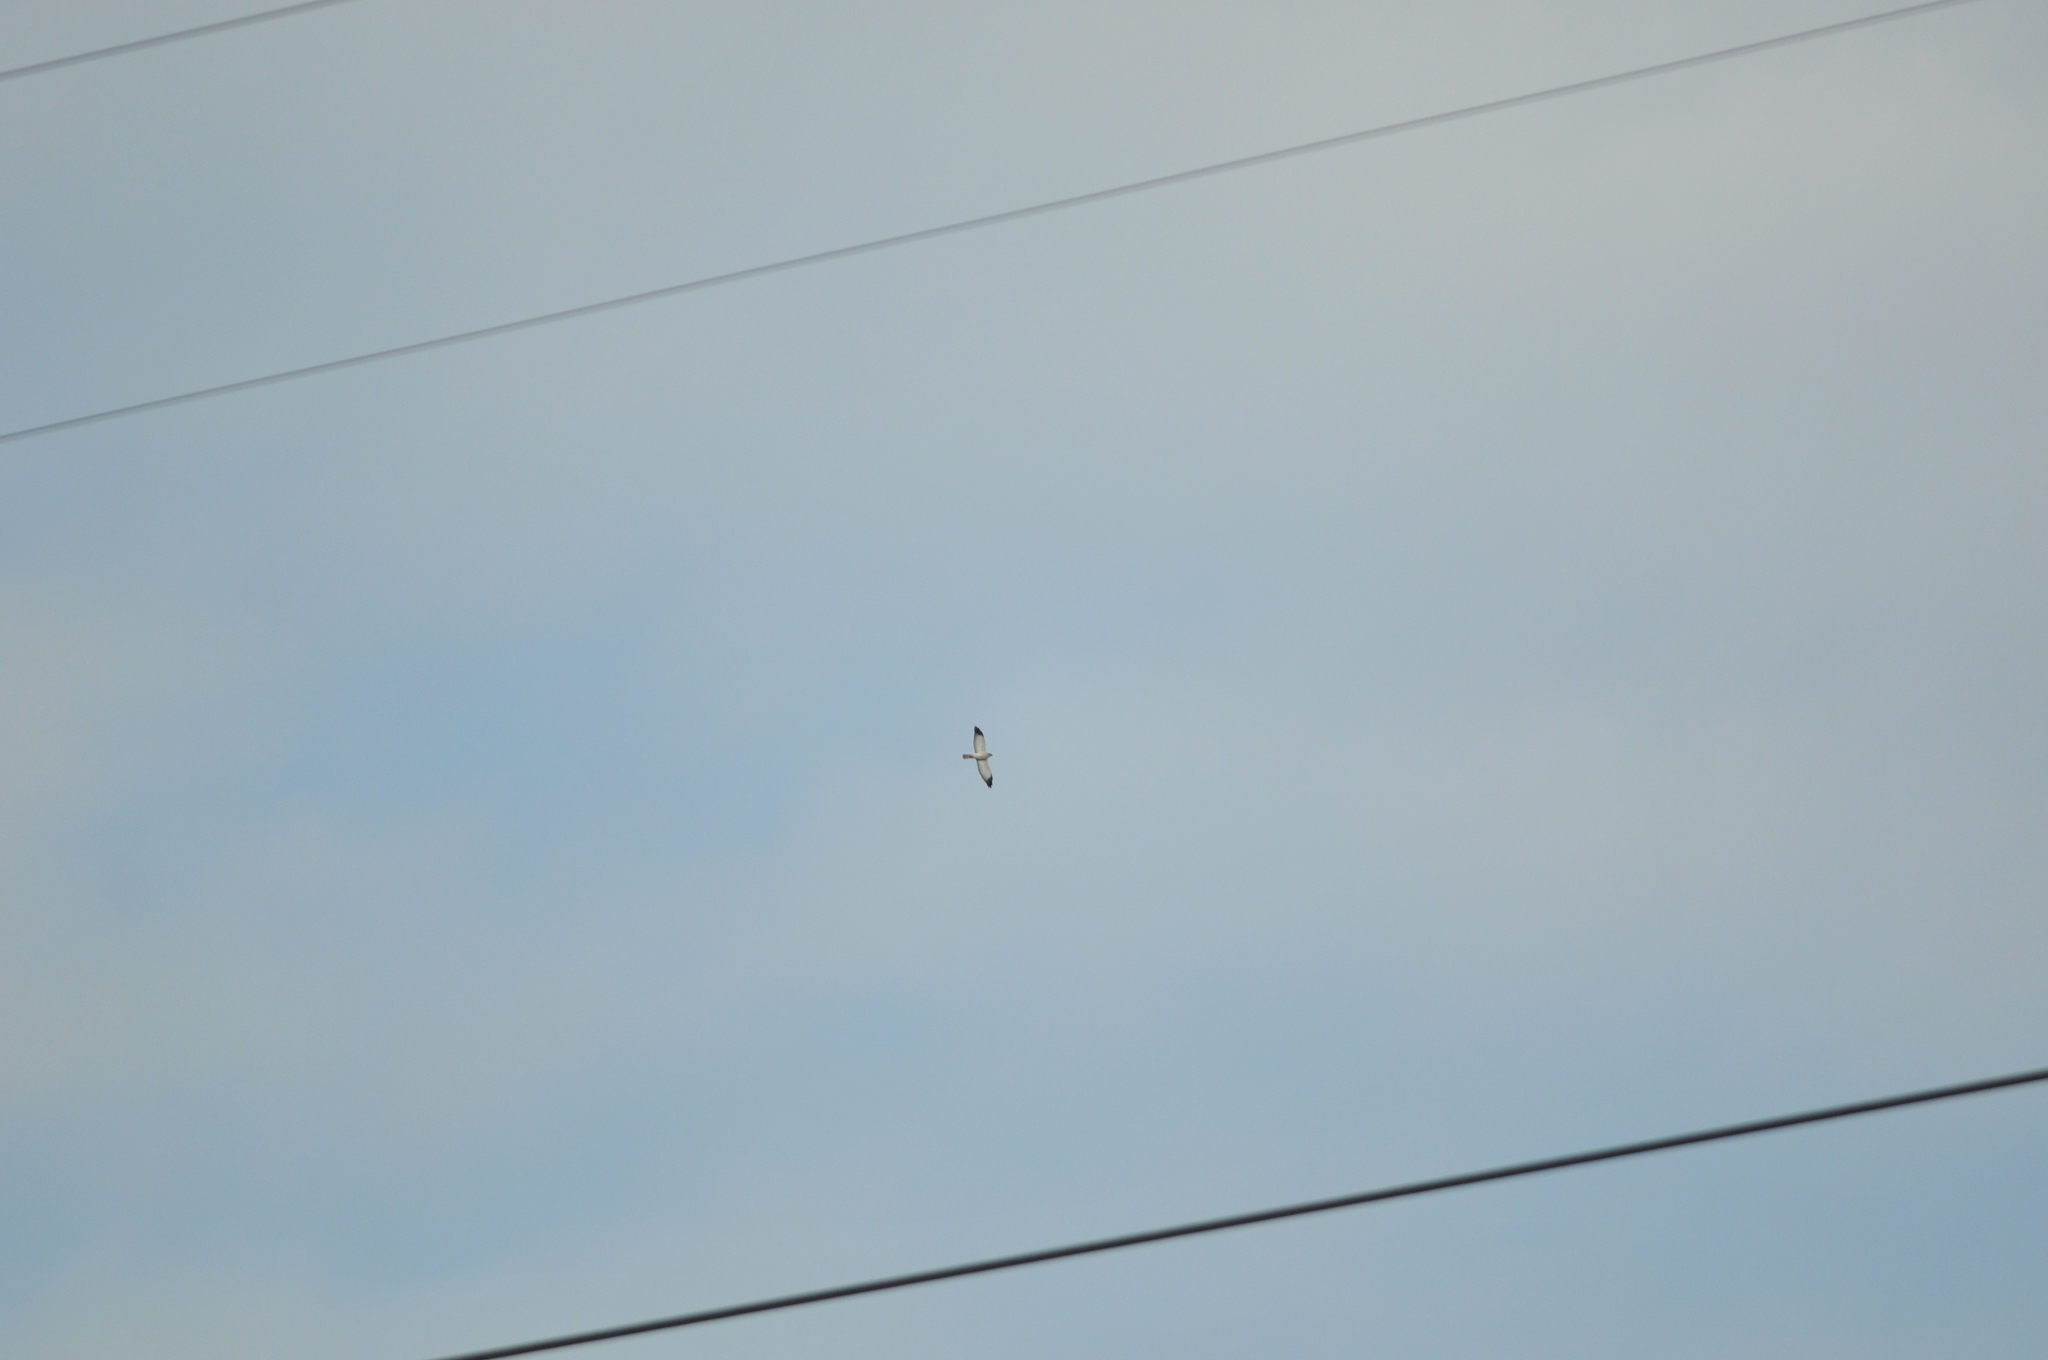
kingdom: Animalia
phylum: Chordata
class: Aves
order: Accipitriformes
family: Accipitridae
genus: Accipiter
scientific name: Accipiter soloensis
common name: Chinese sparrowhawk
